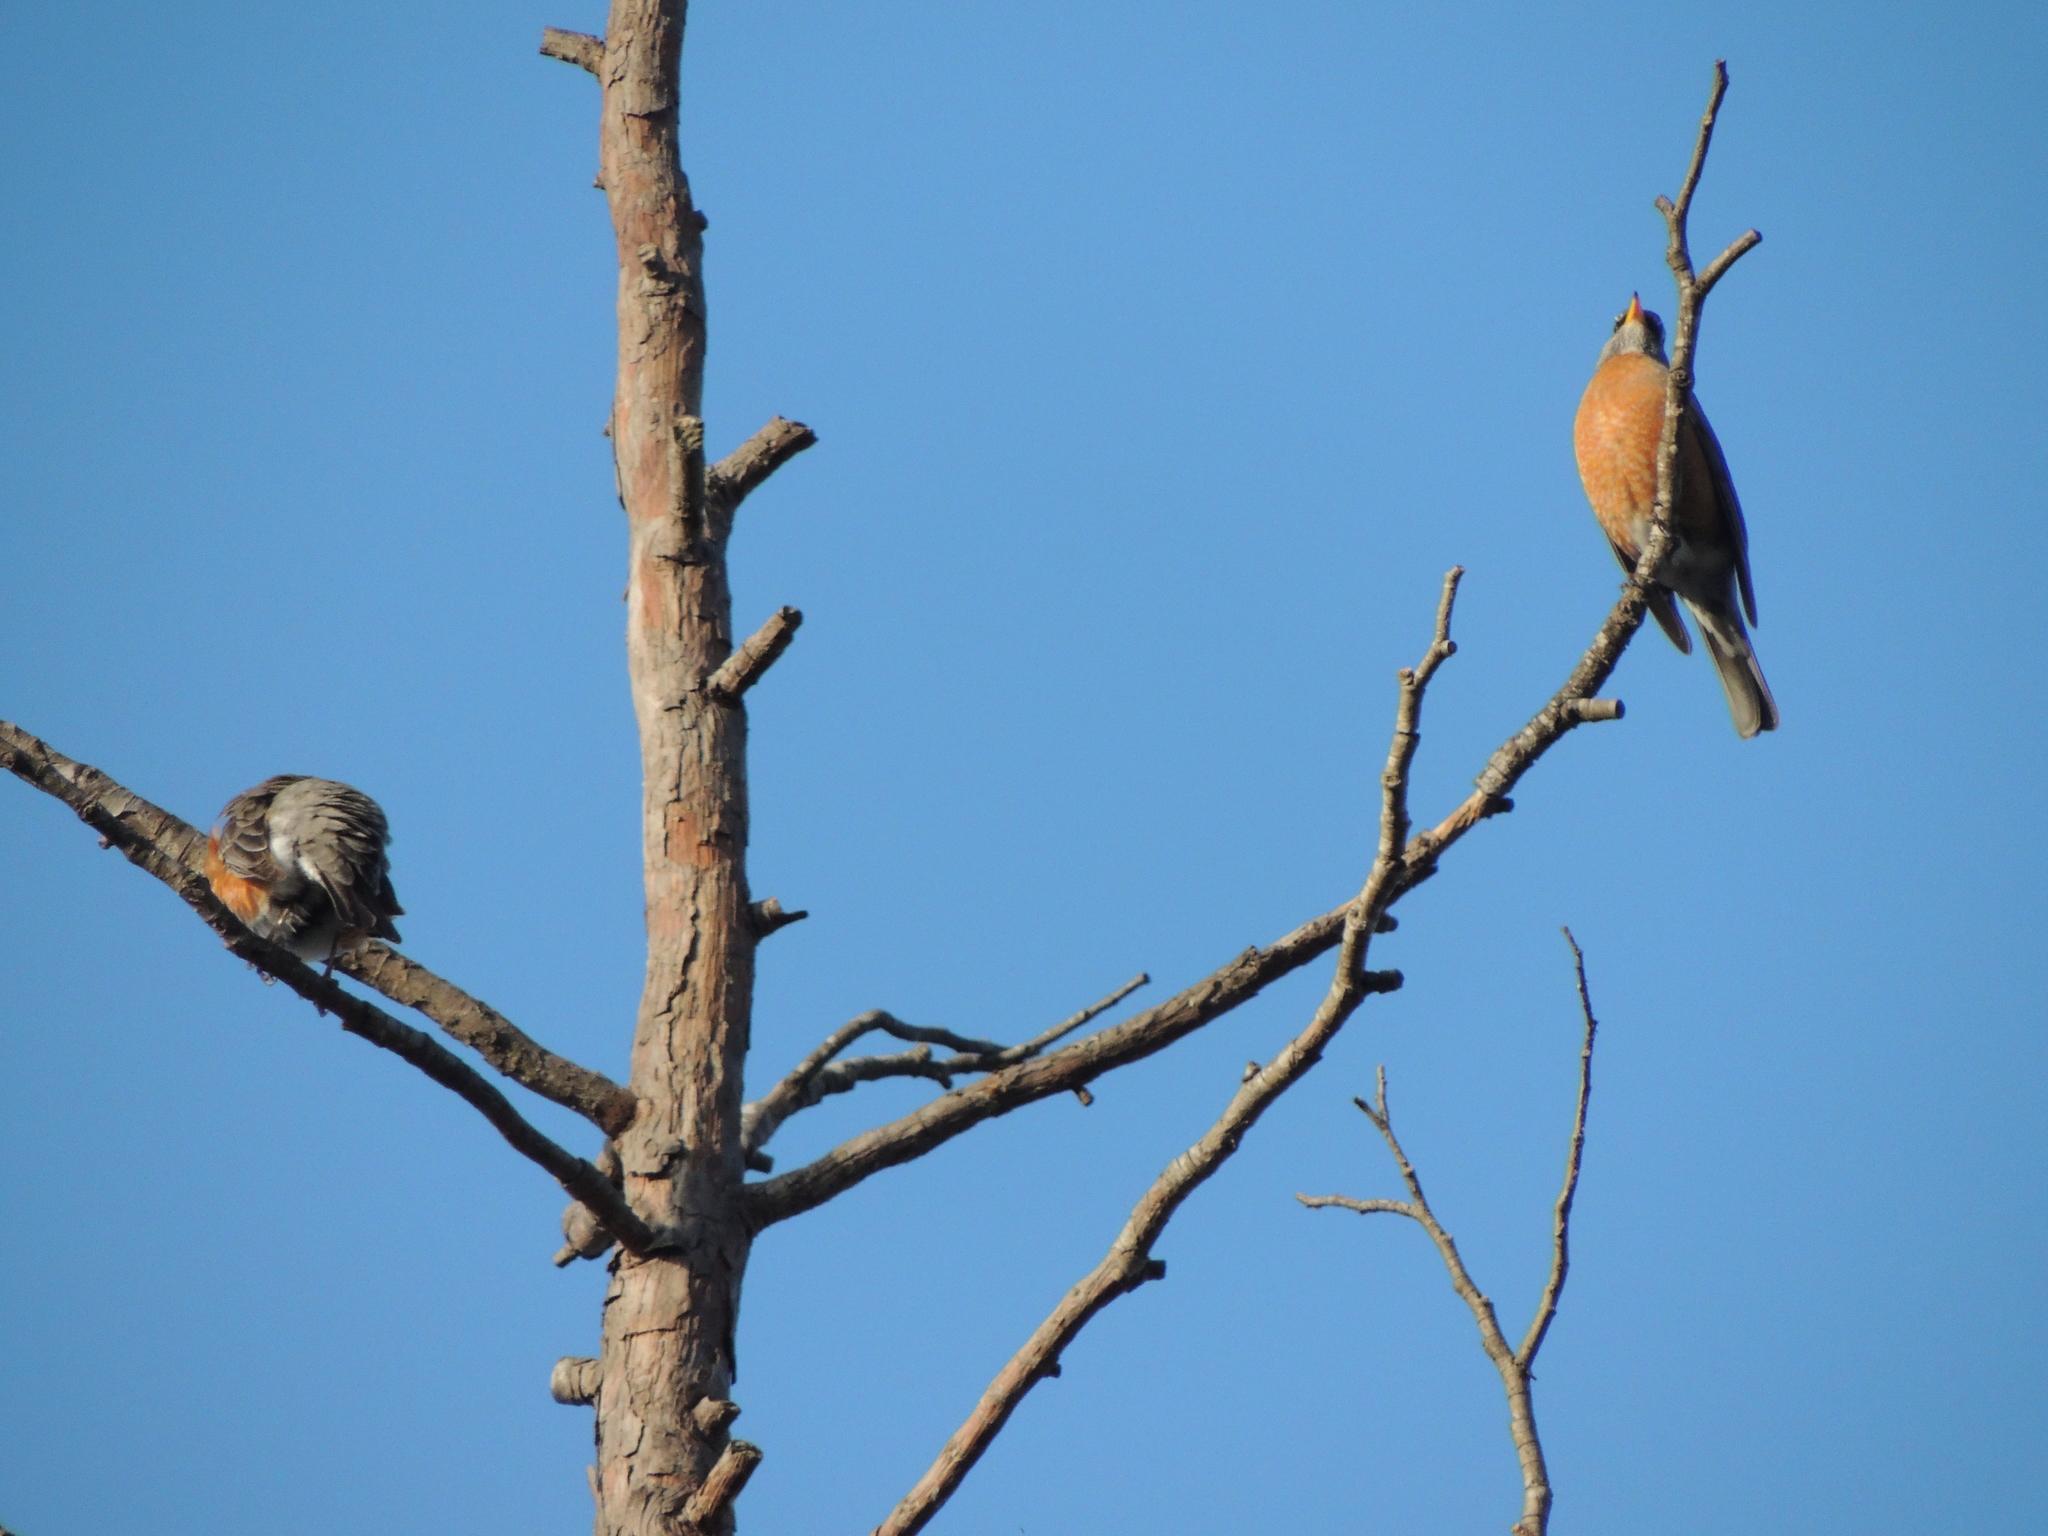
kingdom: Animalia
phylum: Chordata
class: Aves
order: Passeriformes
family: Turdidae
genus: Turdus
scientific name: Turdus migratorius
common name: American robin
